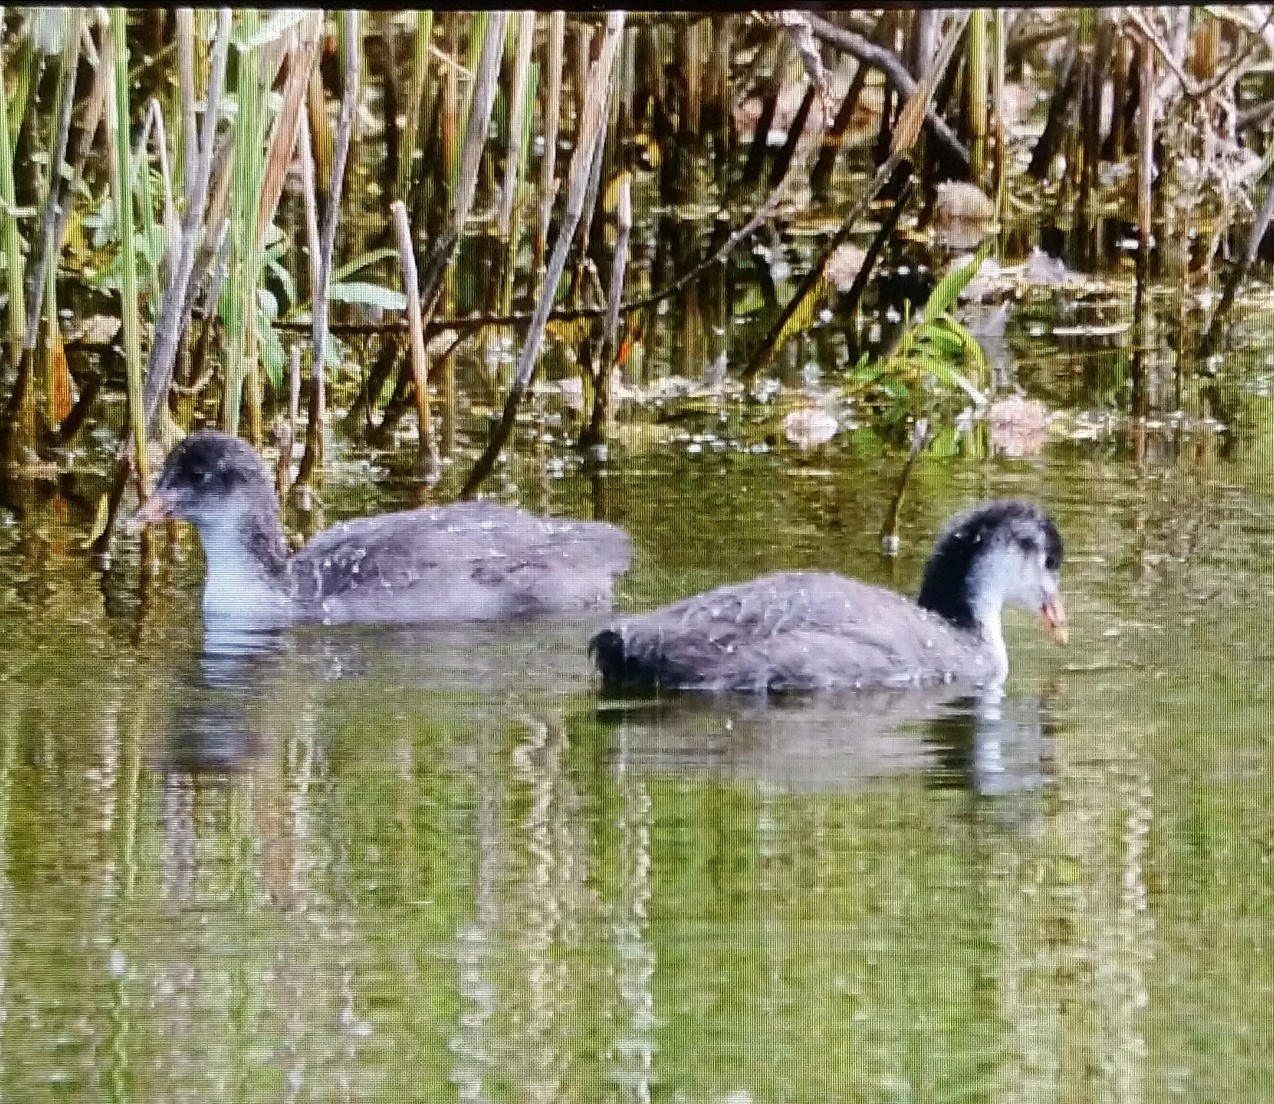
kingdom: Animalia
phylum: Chordata
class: Aves
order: Gruiformes
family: Rallidae
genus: Fulica
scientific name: Fulica atra
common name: Eurasian coot
